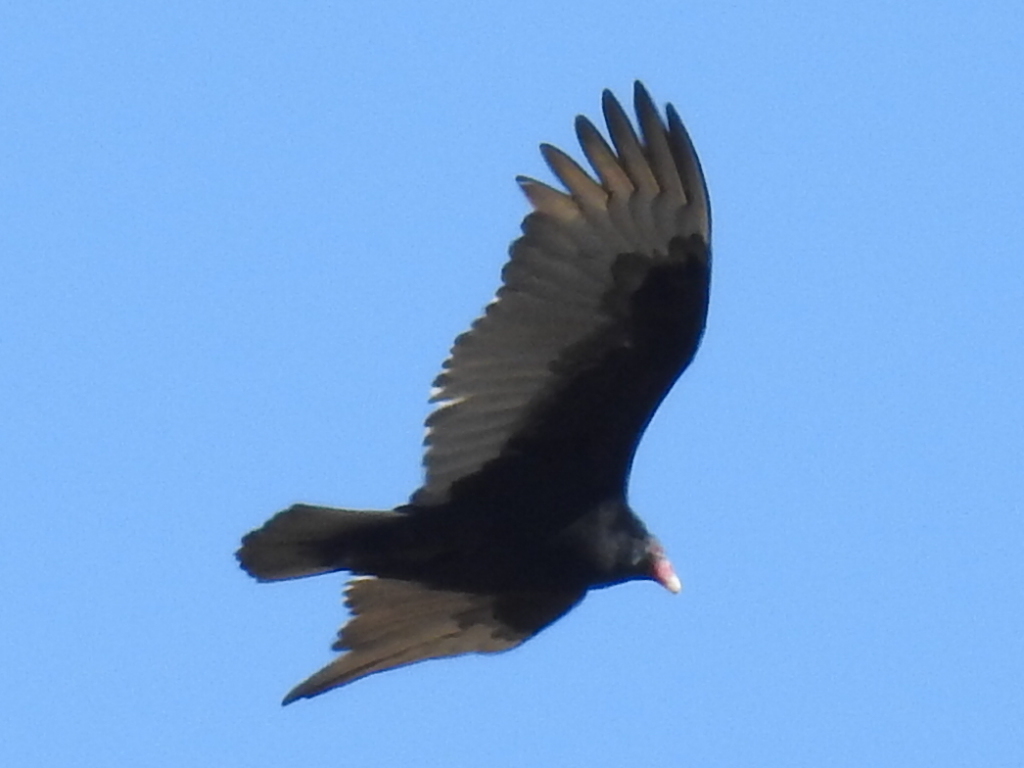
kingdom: Animalia
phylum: Chordata
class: Aves
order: Accipitriformes
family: Cathartidae
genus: Cathartes
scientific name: Cathartes aura
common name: Turkey vulture
